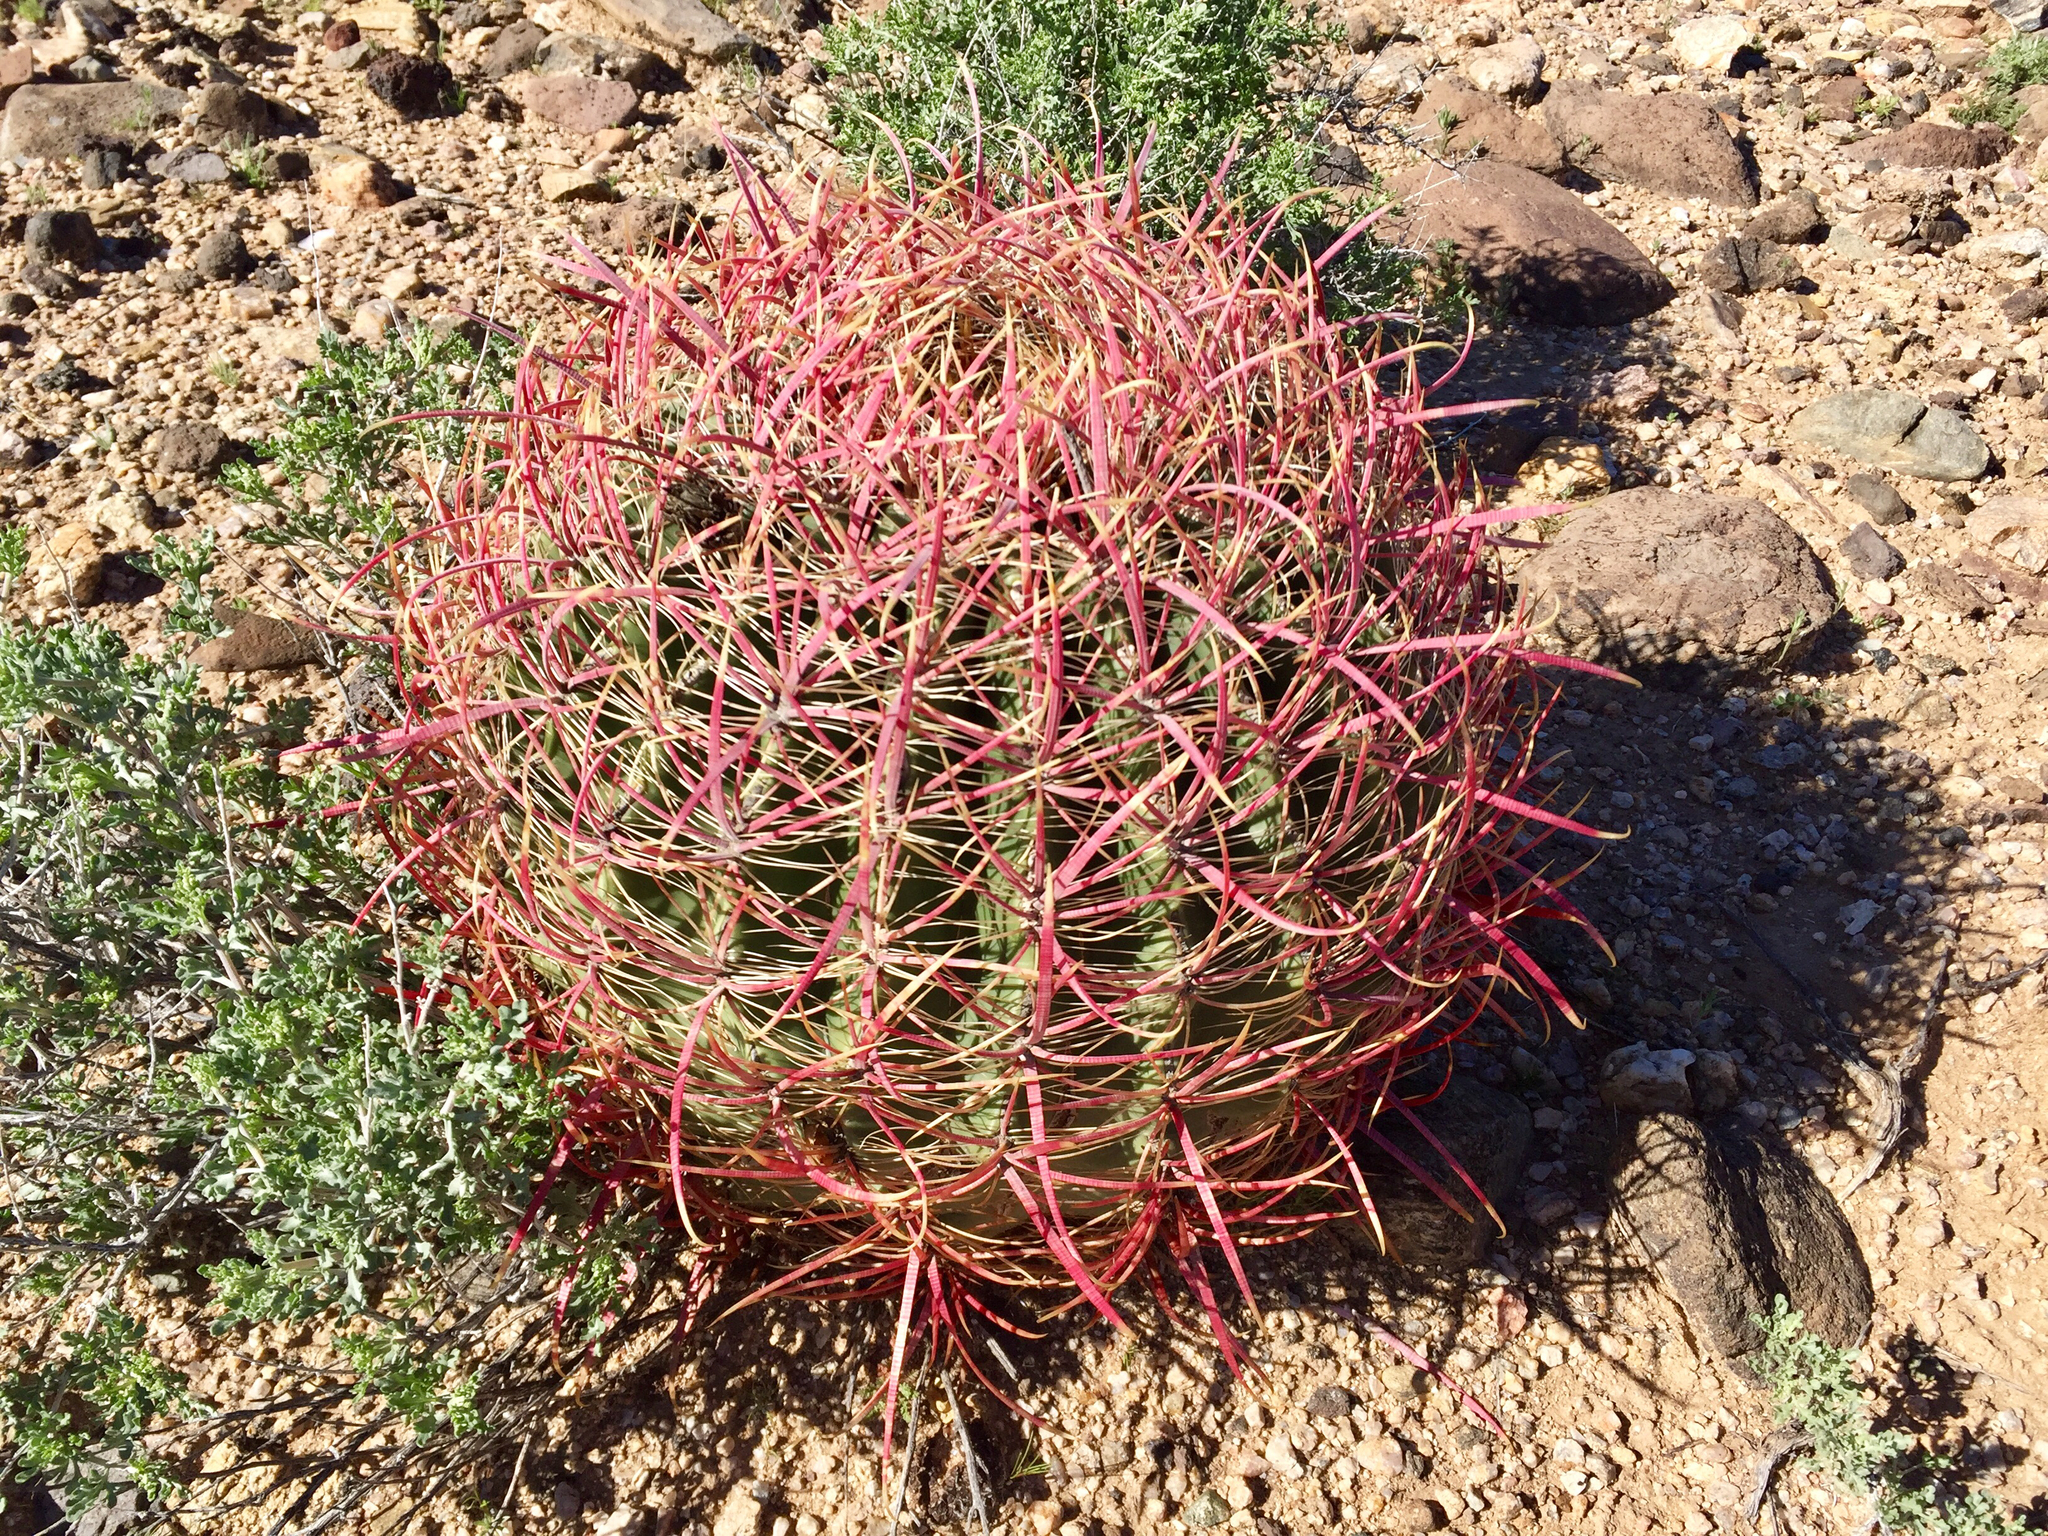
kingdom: Plantae
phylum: Tracheophyta
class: Magnoliopsida
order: Caryophyllales
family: Cactaceae
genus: Ferocactus
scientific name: Ferocactus cylindraceus
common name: California barrel cactus
